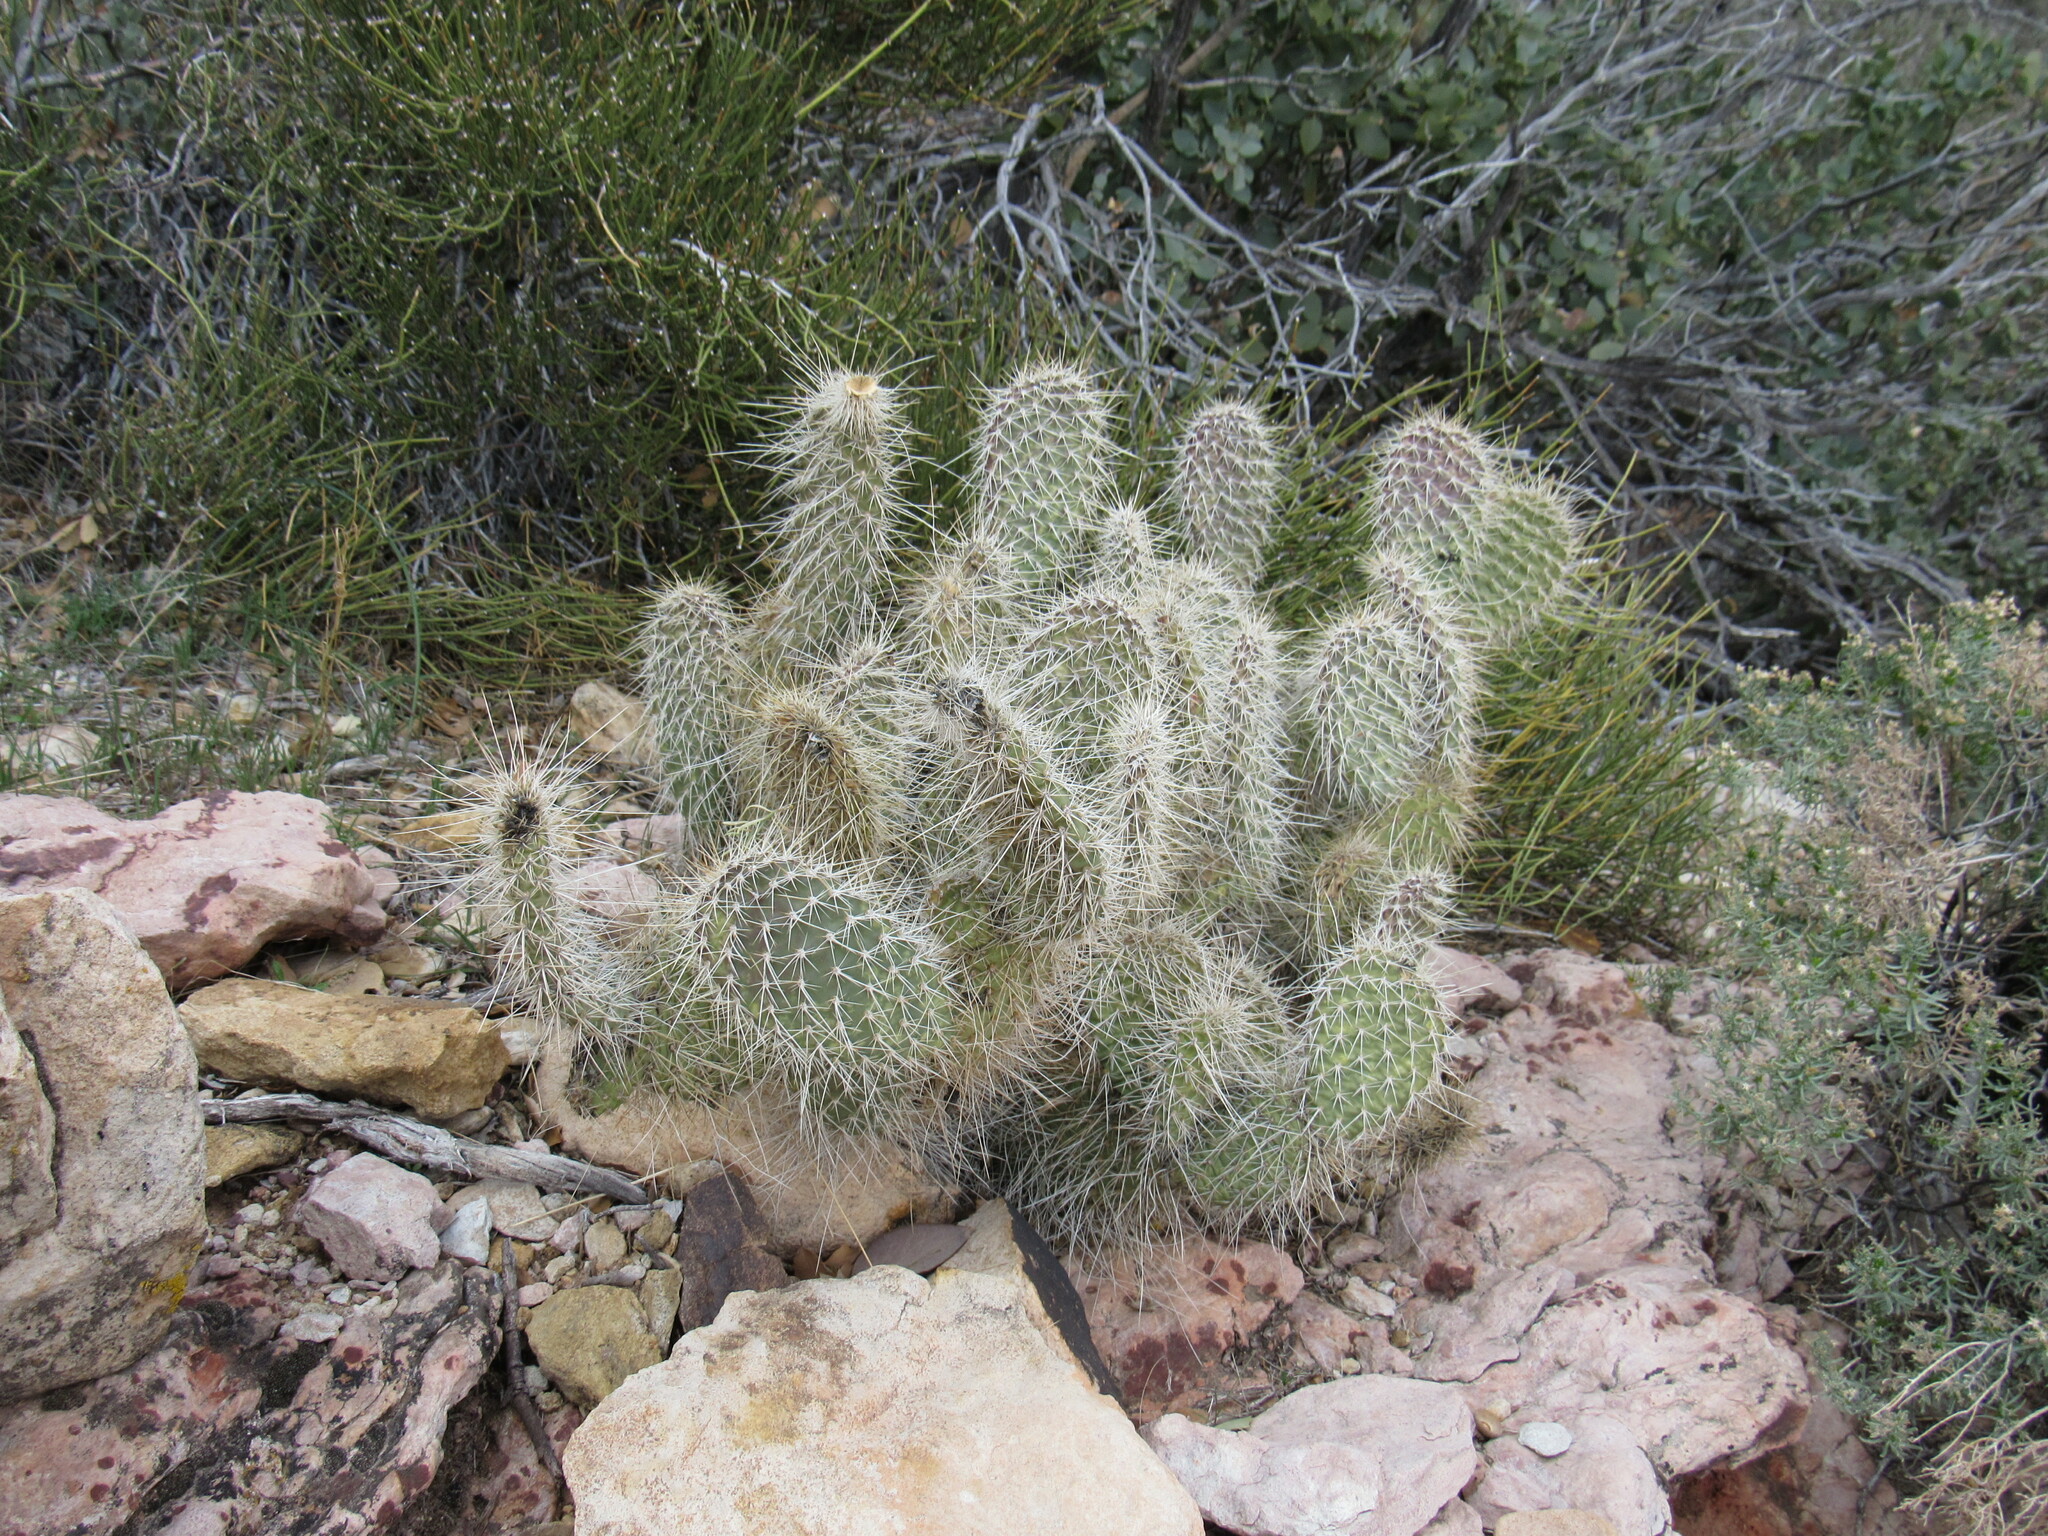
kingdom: Plantae
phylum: Tracheophyta
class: Magnoliopsida
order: Caryophyllales
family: Cactaceae
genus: Opuntia
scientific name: Opuntia polyacantha
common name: Plains prickly-pear
